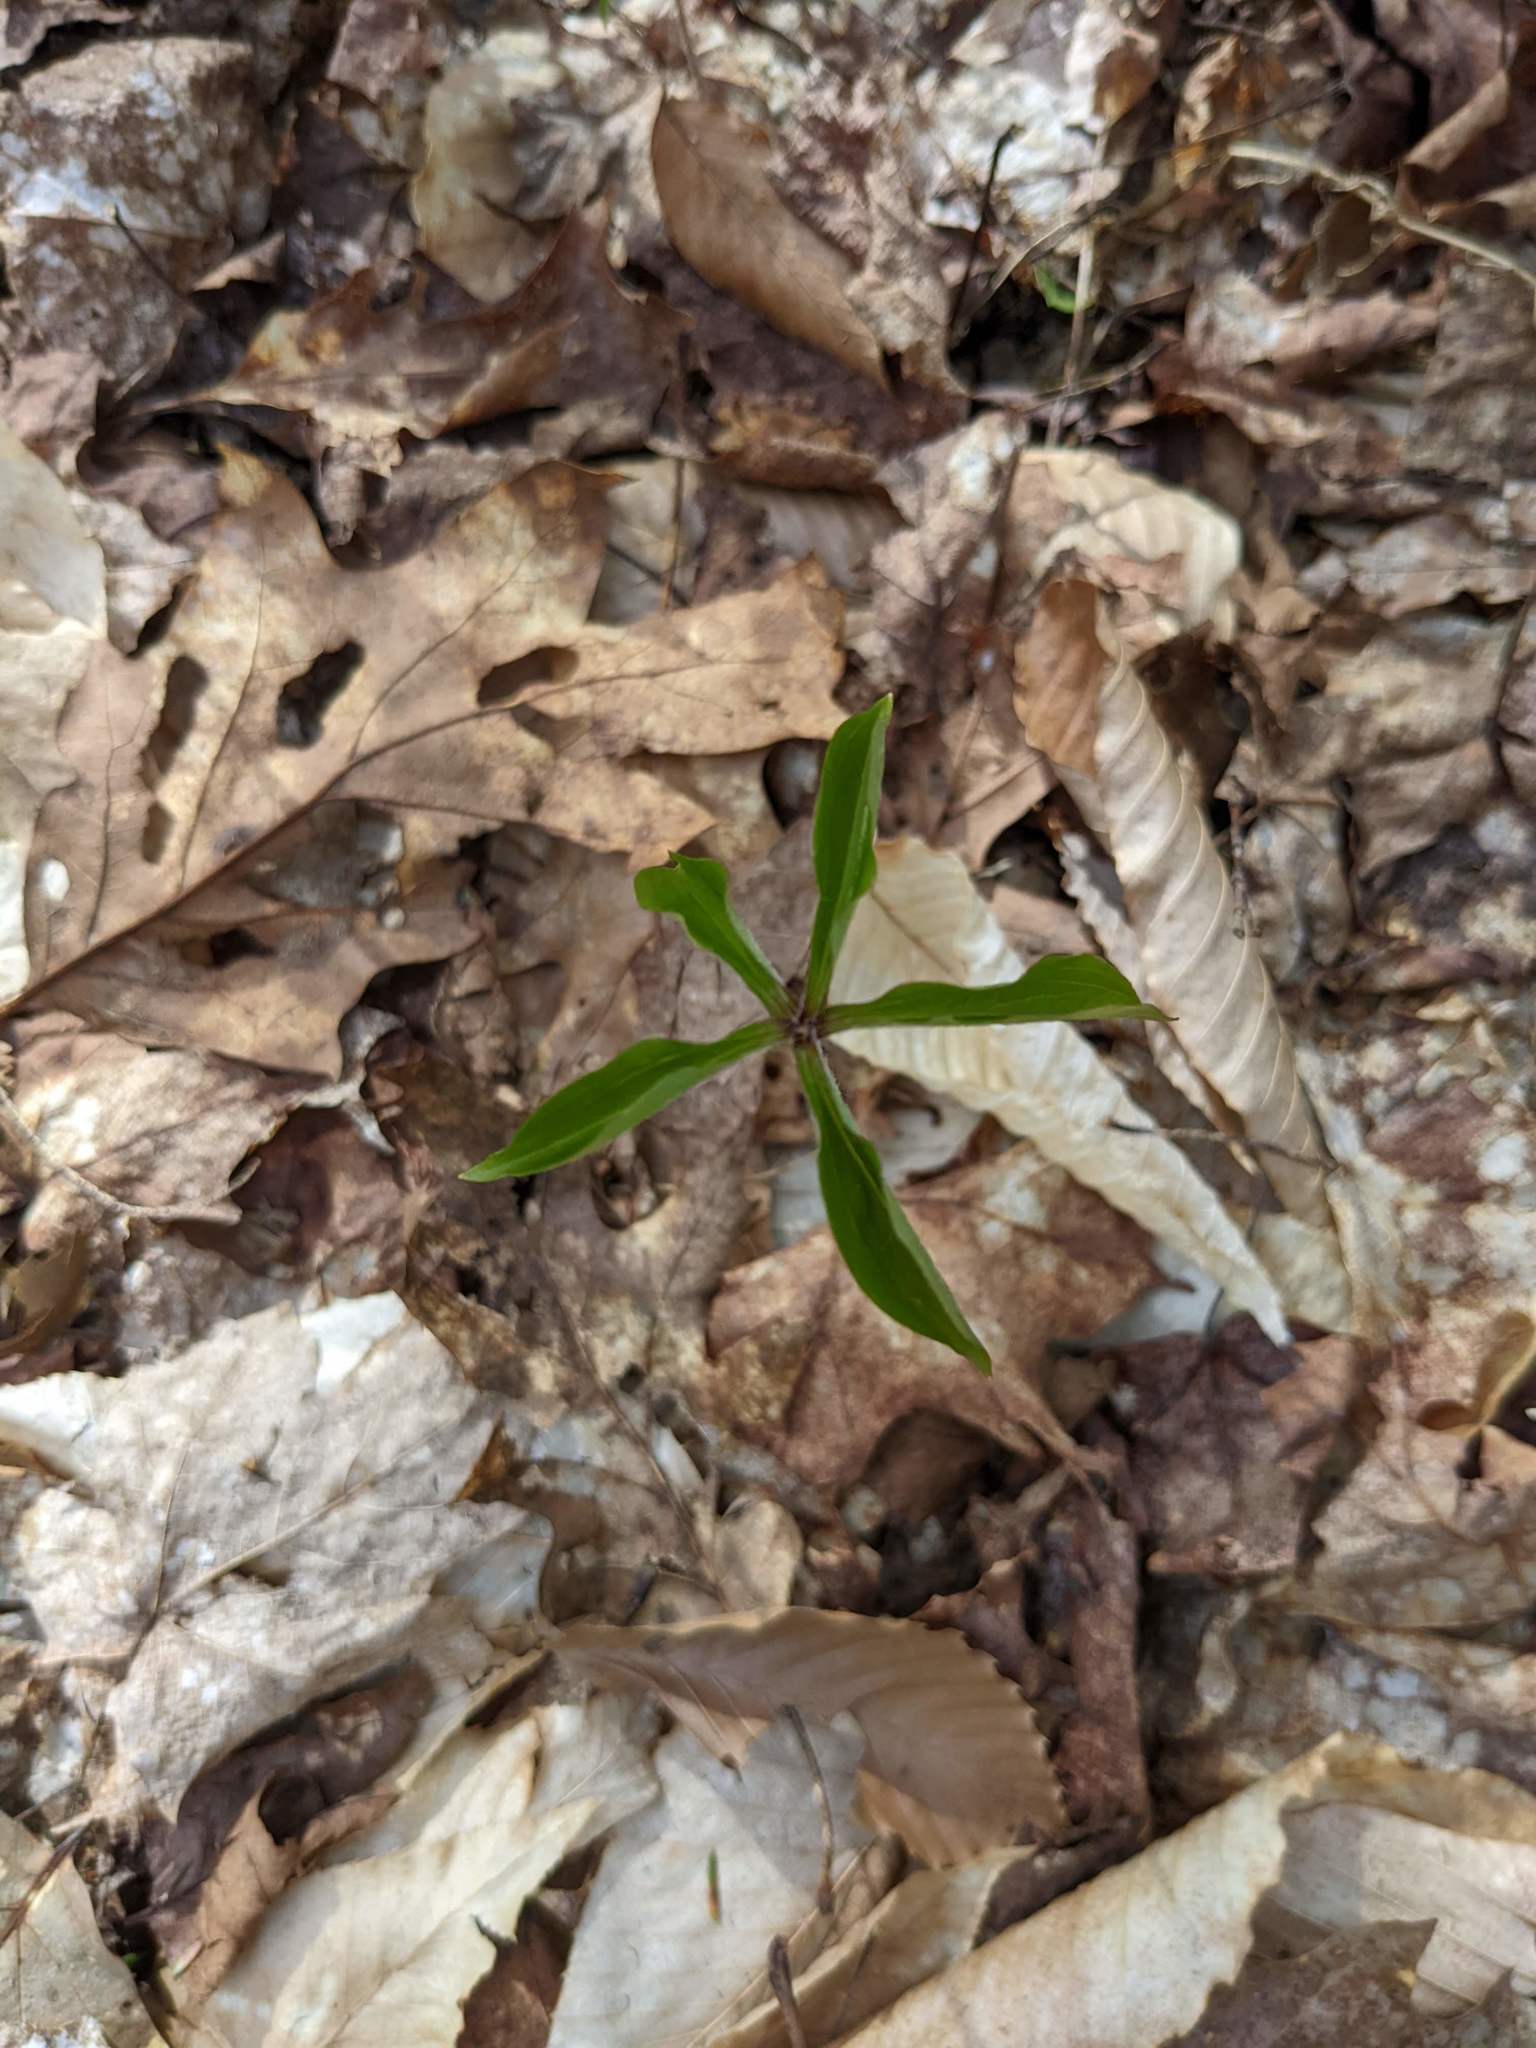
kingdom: Plantae
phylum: Tracheophyta
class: Liliopsida
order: Liliales
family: Liliaceae
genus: Medeola
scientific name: Medeola virginiana
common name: Indian cucumber-root
